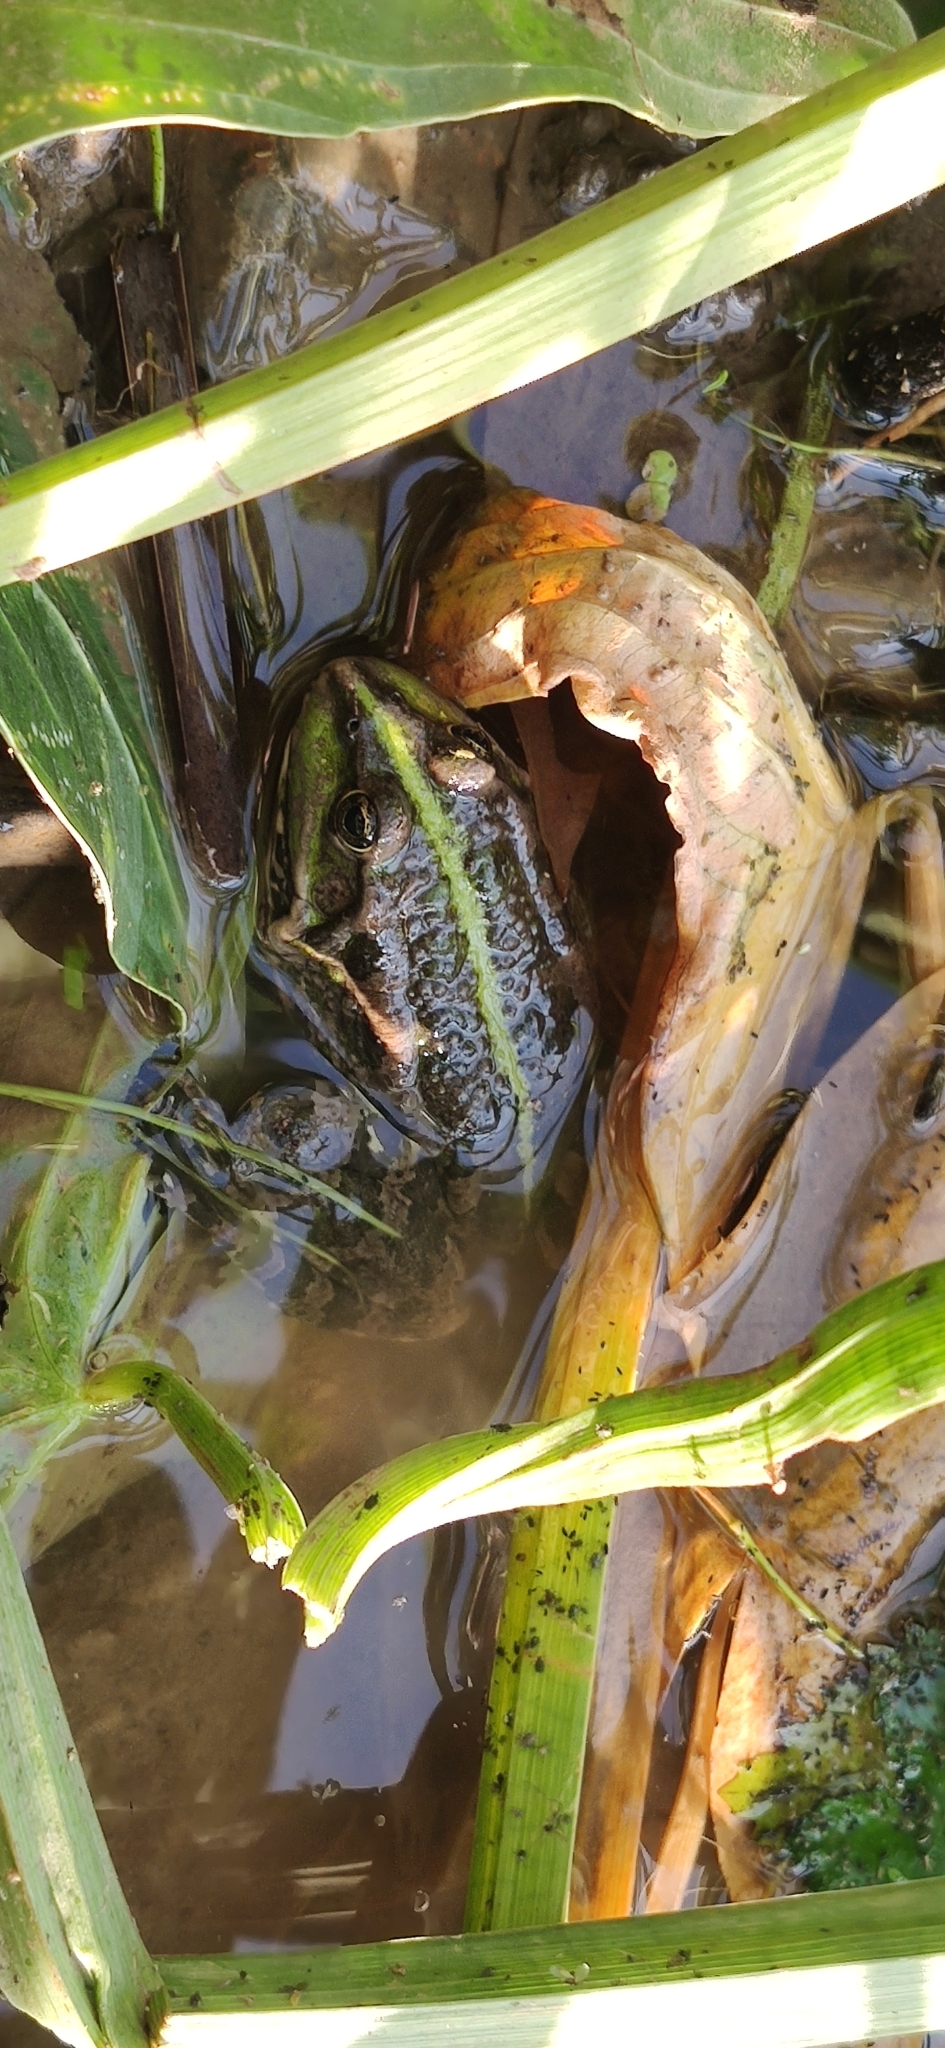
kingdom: Animalia
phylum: Chordata
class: Amphibia
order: Anura
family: Ranidae
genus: Pelophylax
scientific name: Pelophylax ridibundus
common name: Marsh frog
